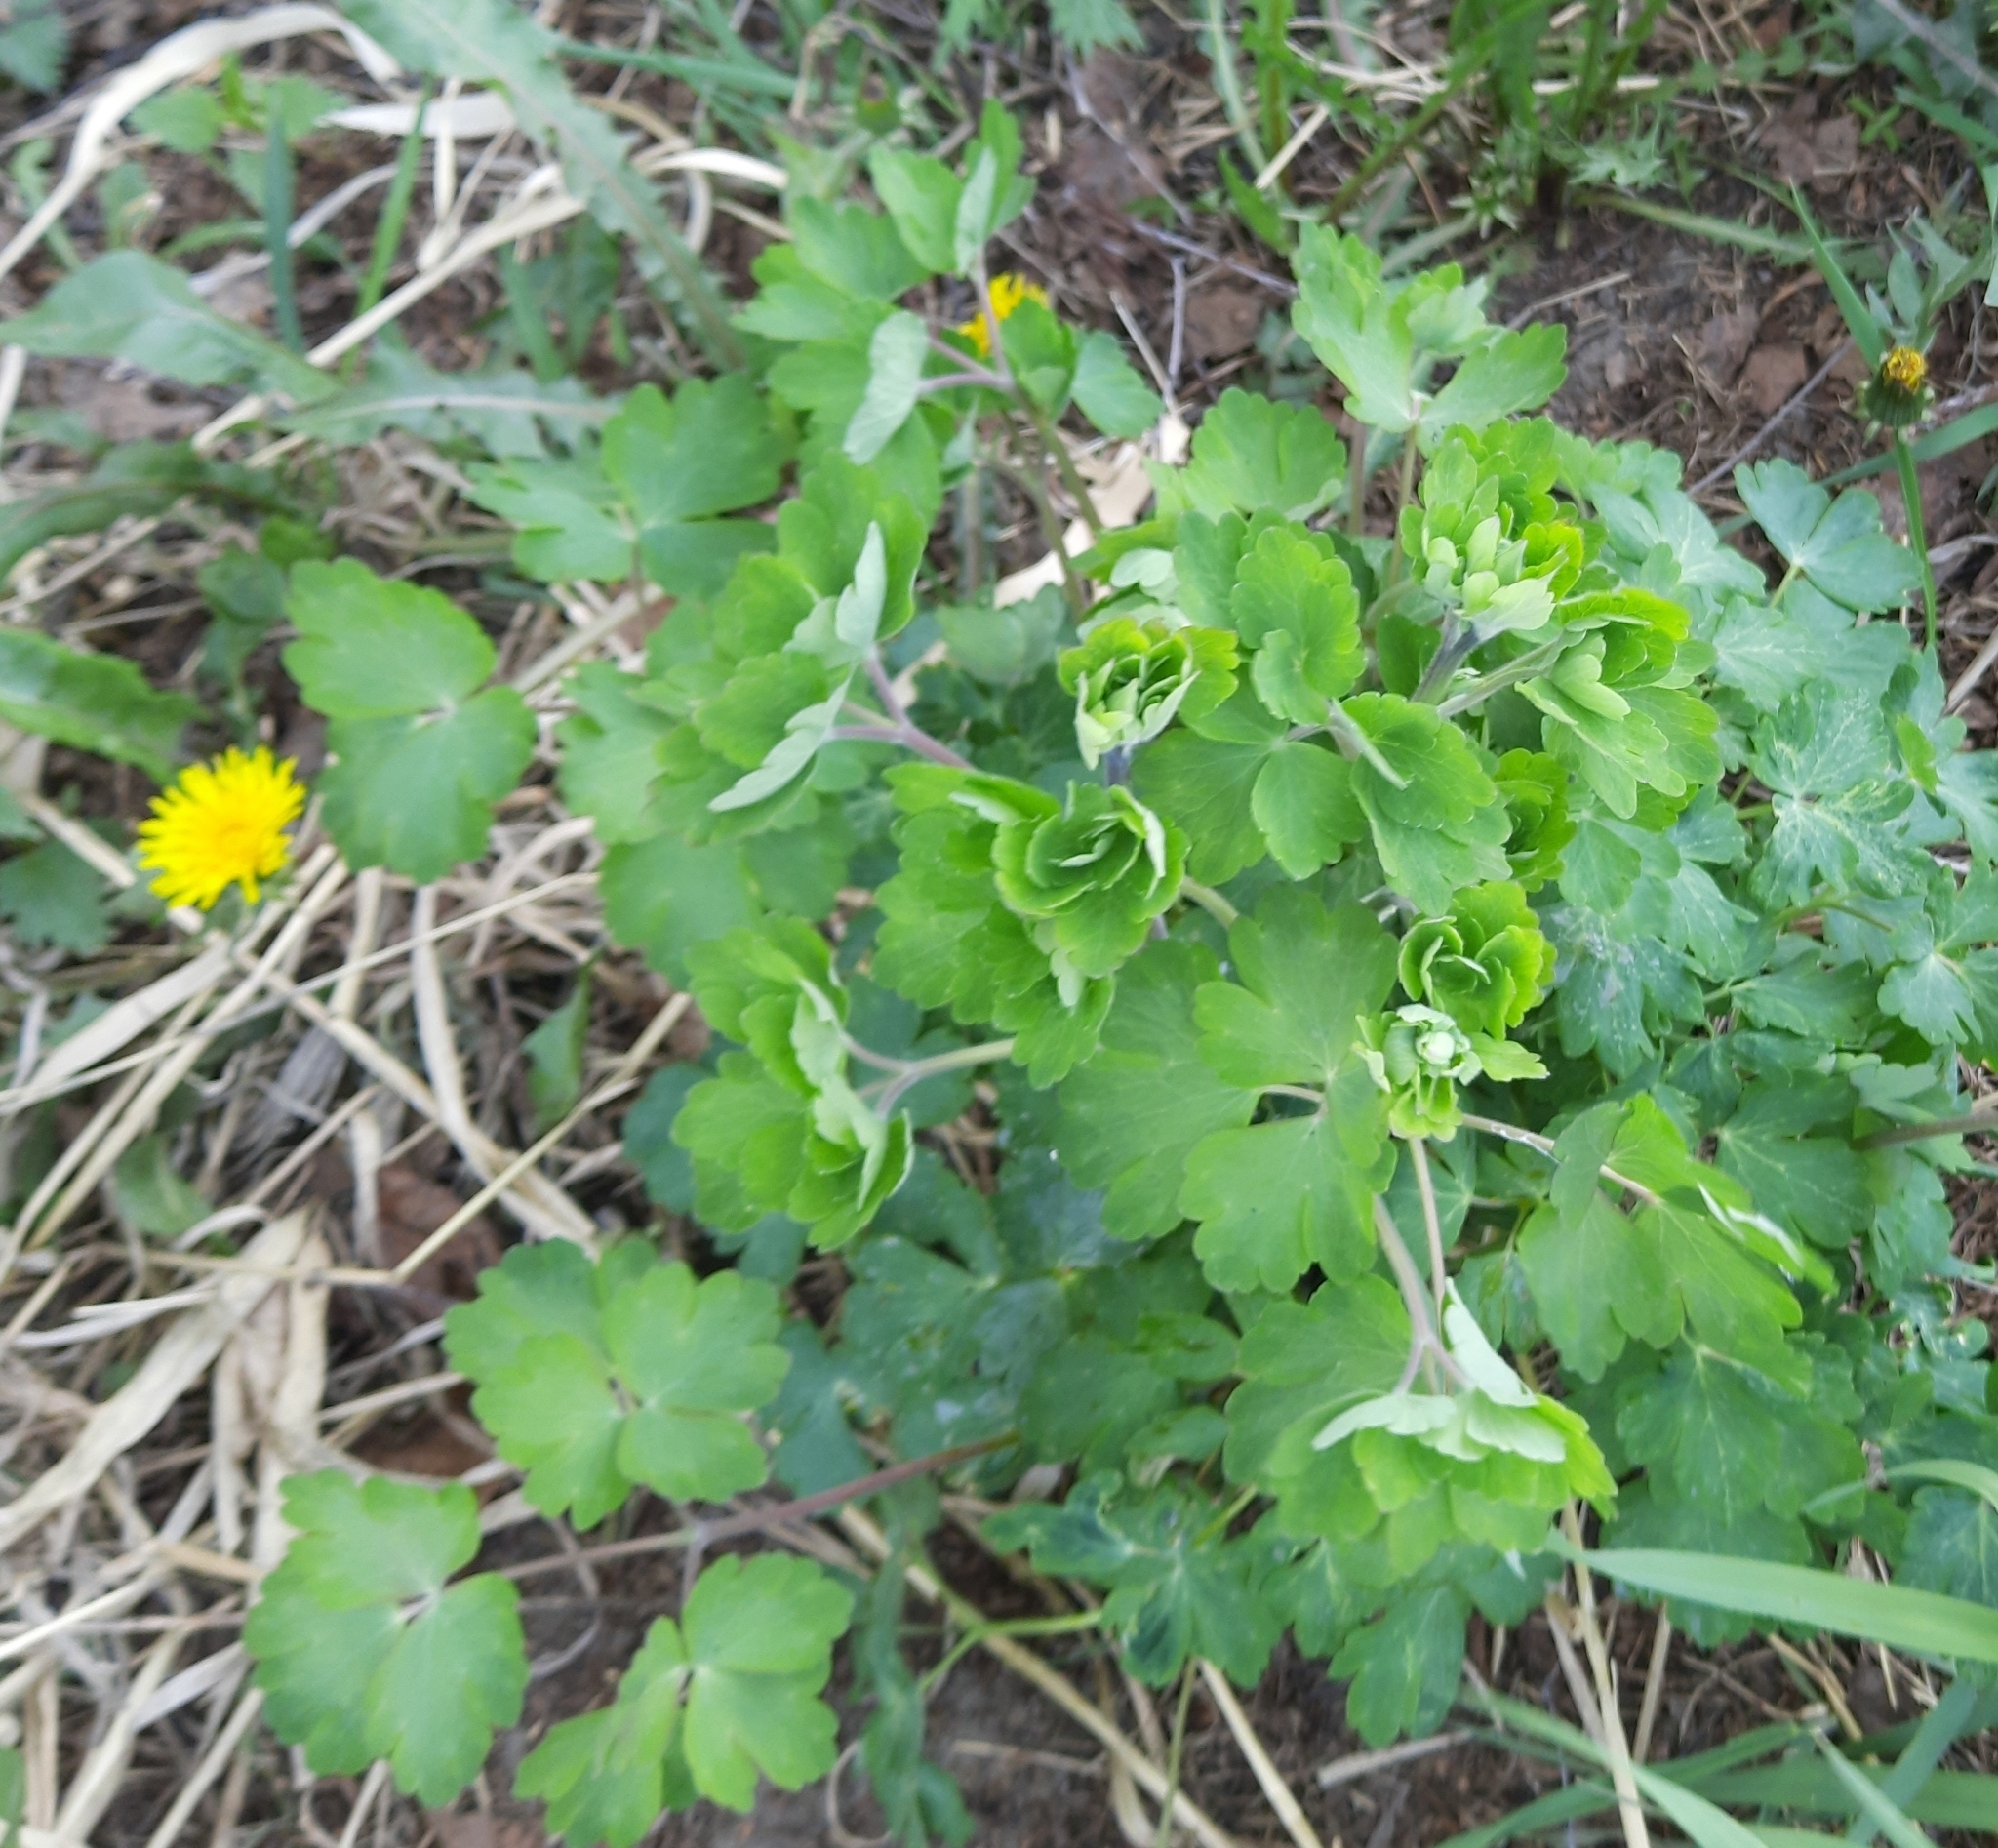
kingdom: Plantae
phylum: Tracheophyta
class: Magnoliopsida
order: Ranunculales
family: Ranunculaceae
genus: Aquilegia
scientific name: Aquilegia vulgaris
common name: Columbine
